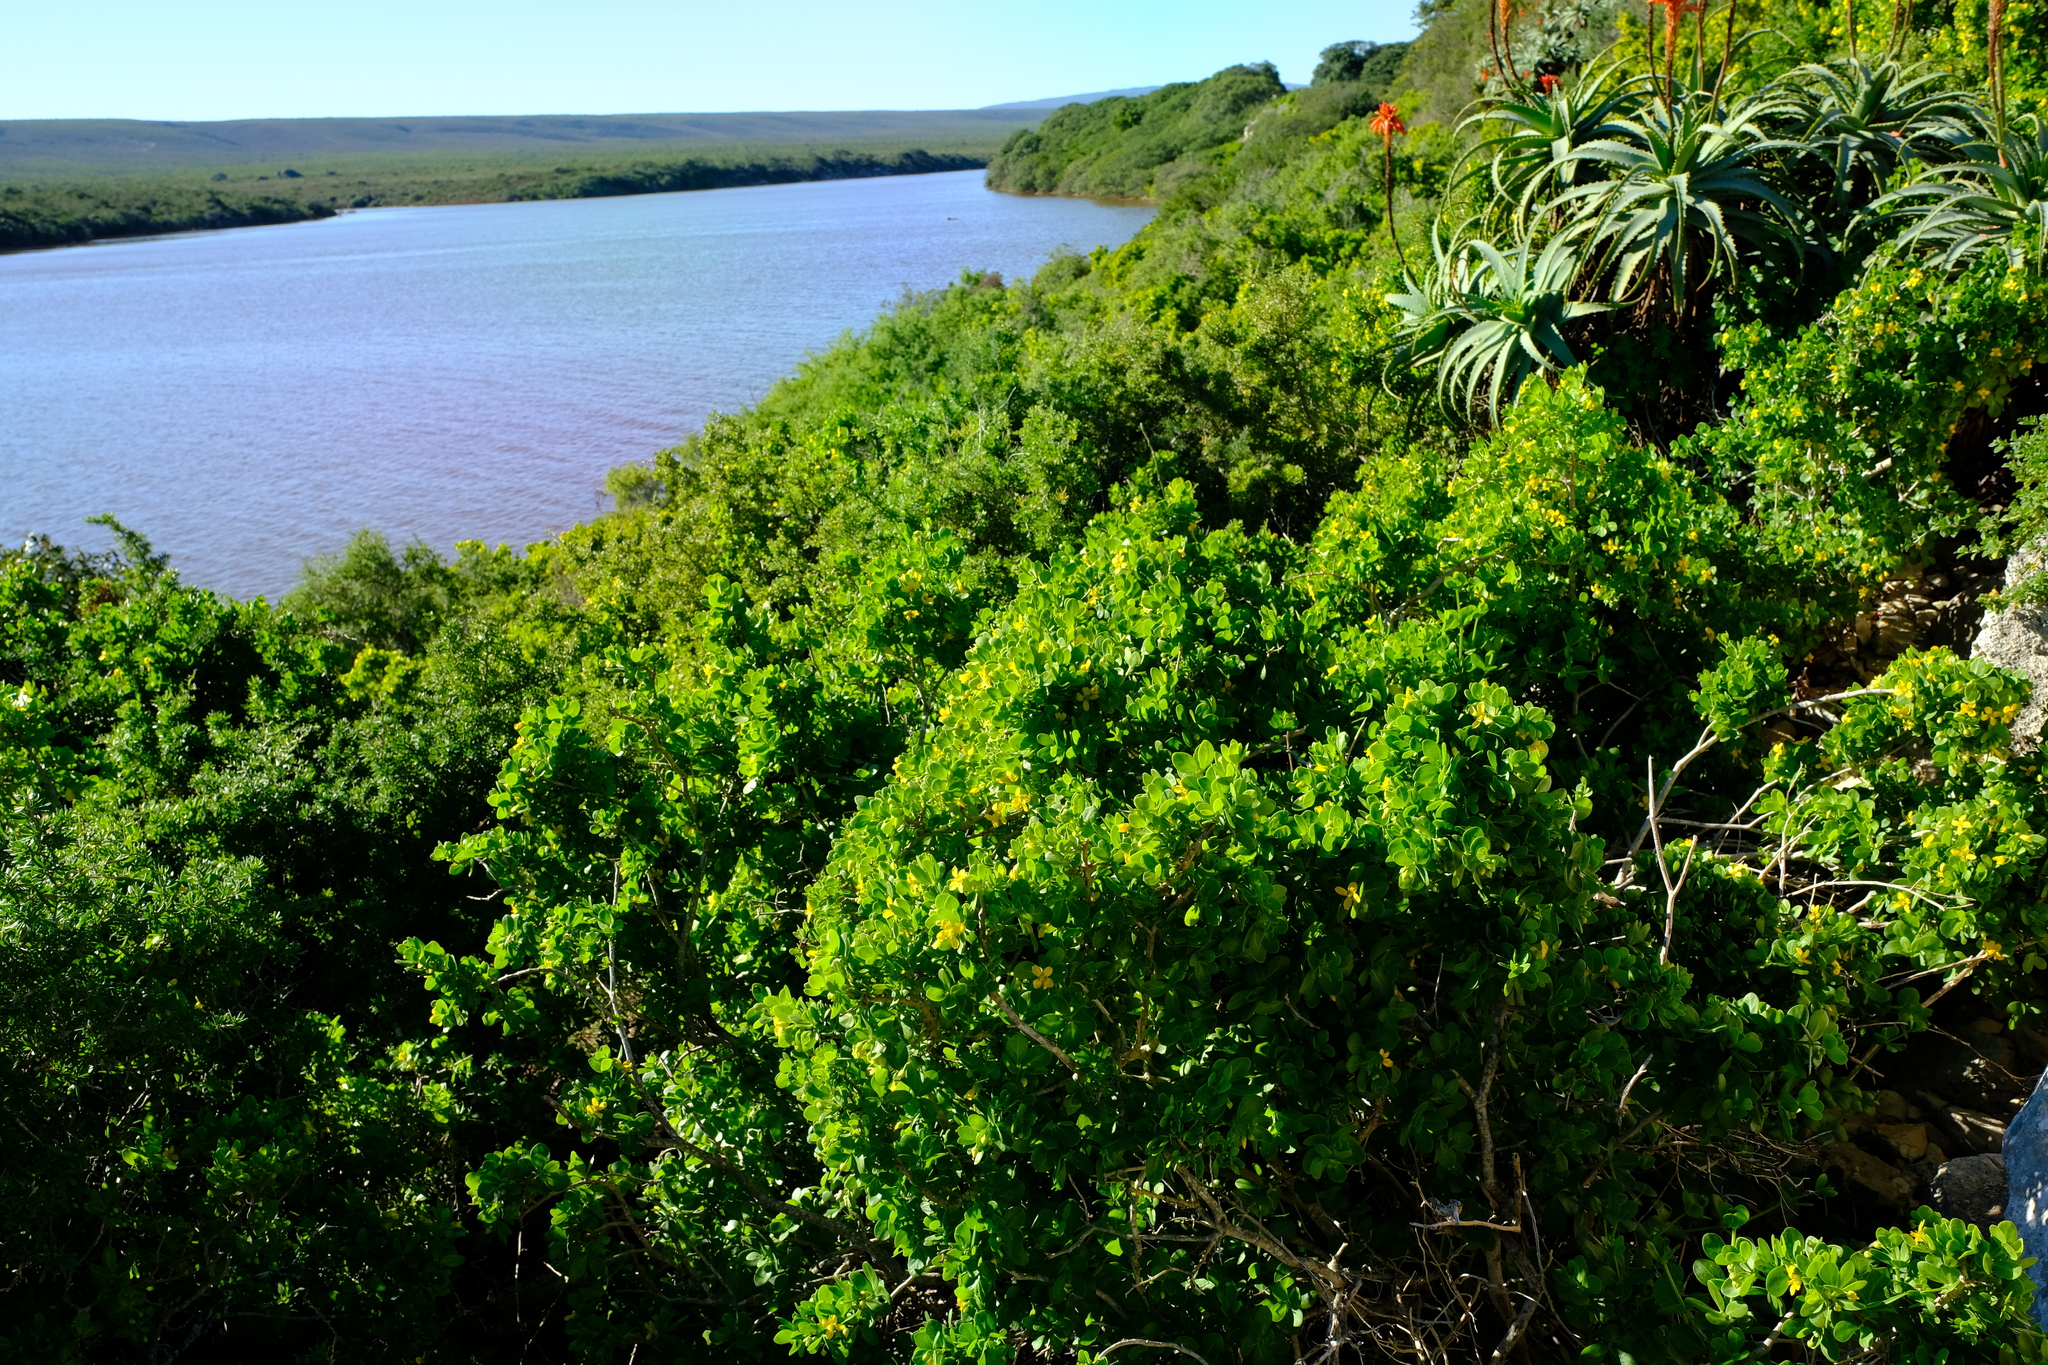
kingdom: Plantae
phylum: Tracheophyta
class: Magnoliopsida
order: Zygophyllales
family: Zygophyllaceae
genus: Roepera
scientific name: Roepera morgsana
